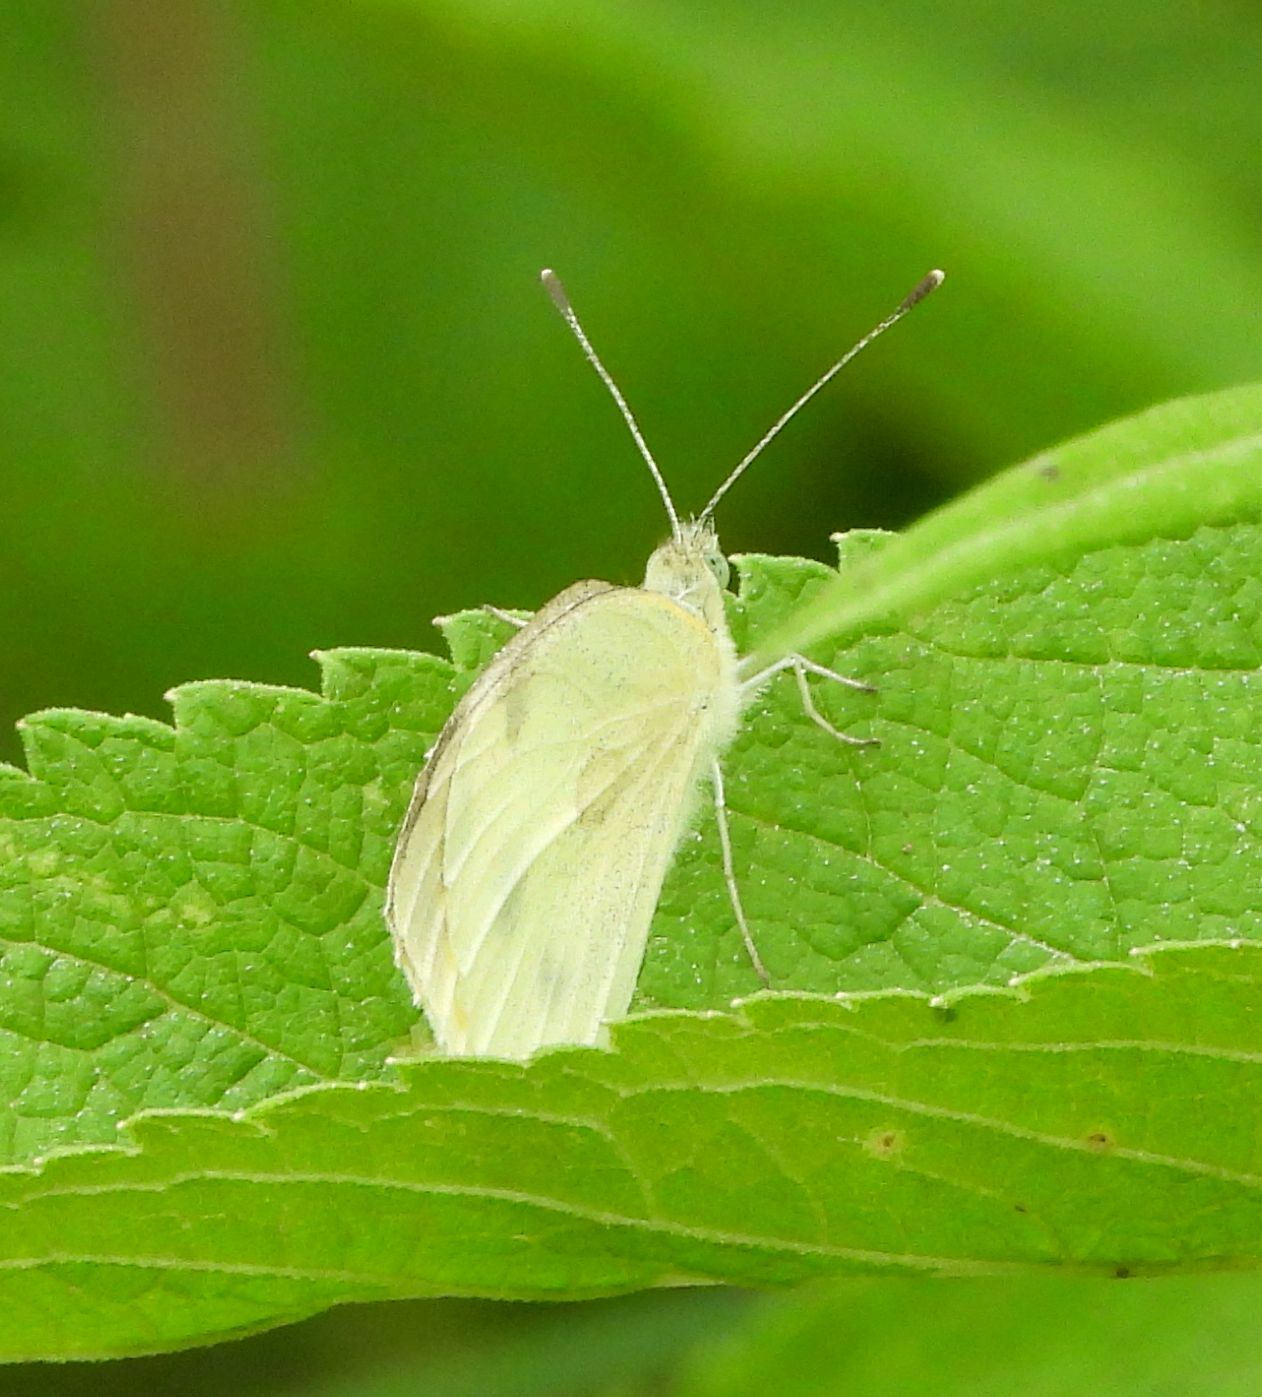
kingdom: Animalia
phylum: Arthropoda
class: Insecta
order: Lepidoptera
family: Pieridae
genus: Pieris
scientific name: Pieris rapae
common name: Small white
